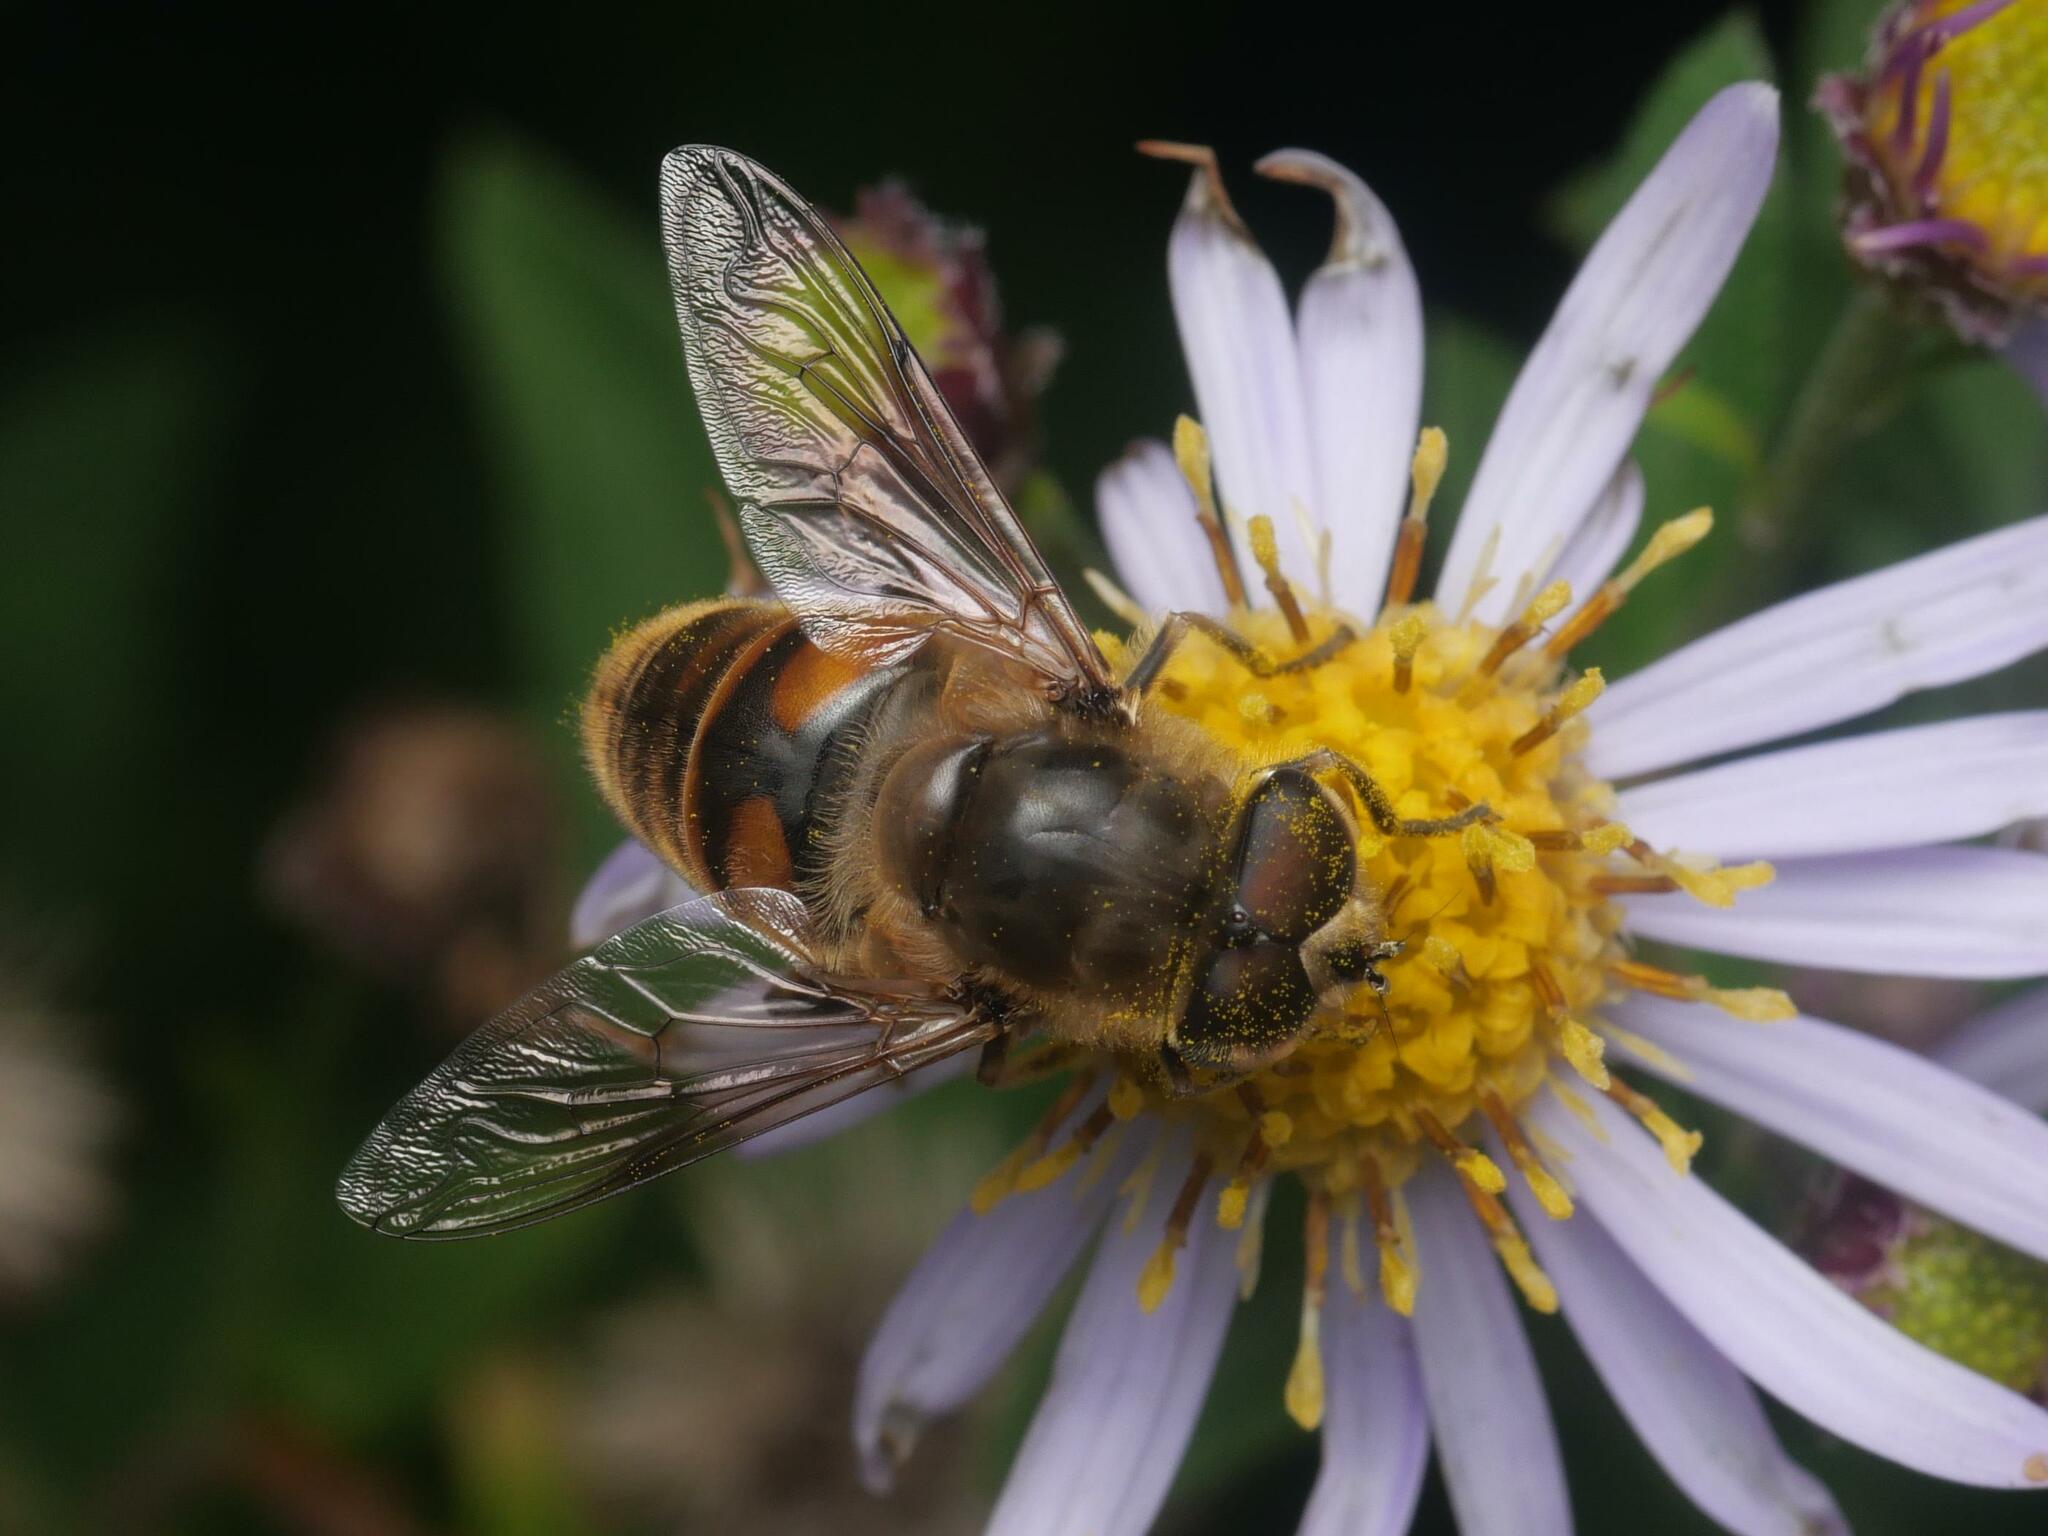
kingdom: Animalia
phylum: Arthropoda
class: Insecta
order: Diptera
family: Syrphidae
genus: Eristalis
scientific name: Eristalis tenax
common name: Drone fly
